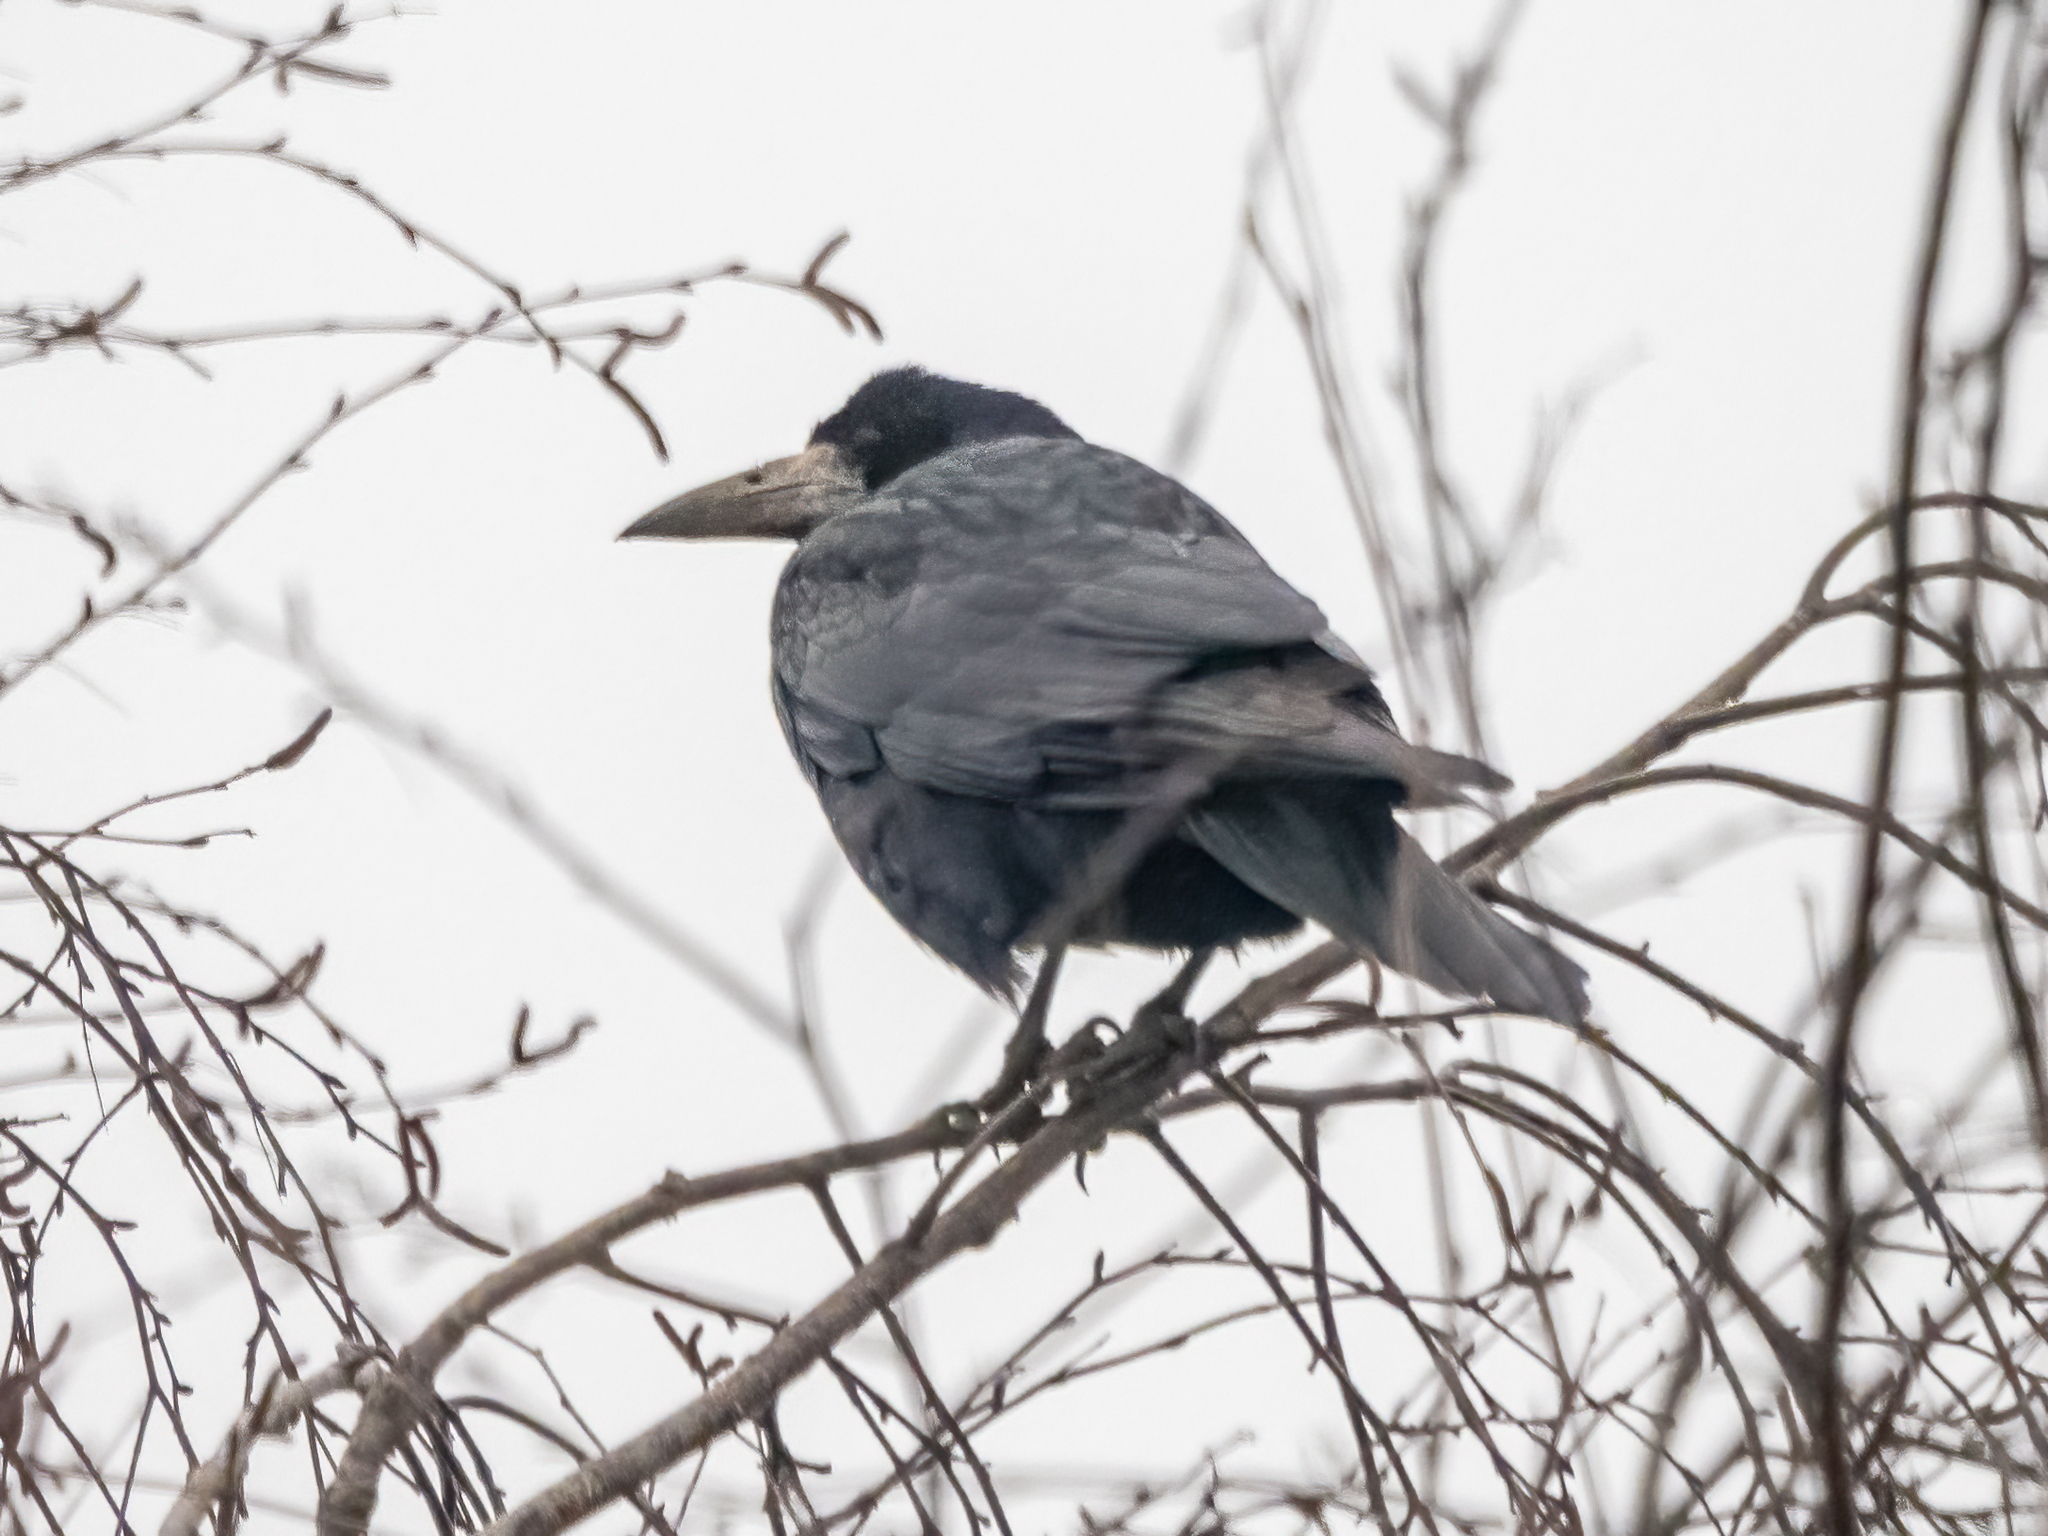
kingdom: Animalia
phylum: Chordata
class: Aves
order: Passeriformes
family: Corvidae
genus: Corvus
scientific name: Corvus frugilegus
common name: Rook
